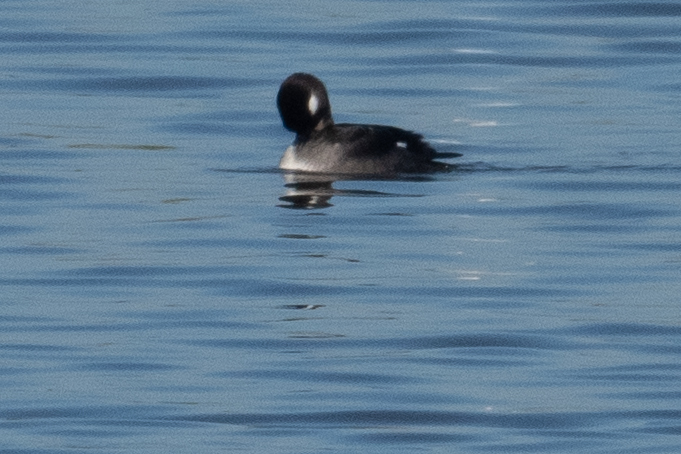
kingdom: Animalia
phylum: Chordata
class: Aves
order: Anseriformes
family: Anatidae
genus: Bucephala
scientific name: Bucephala albeola
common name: Bufflehead
